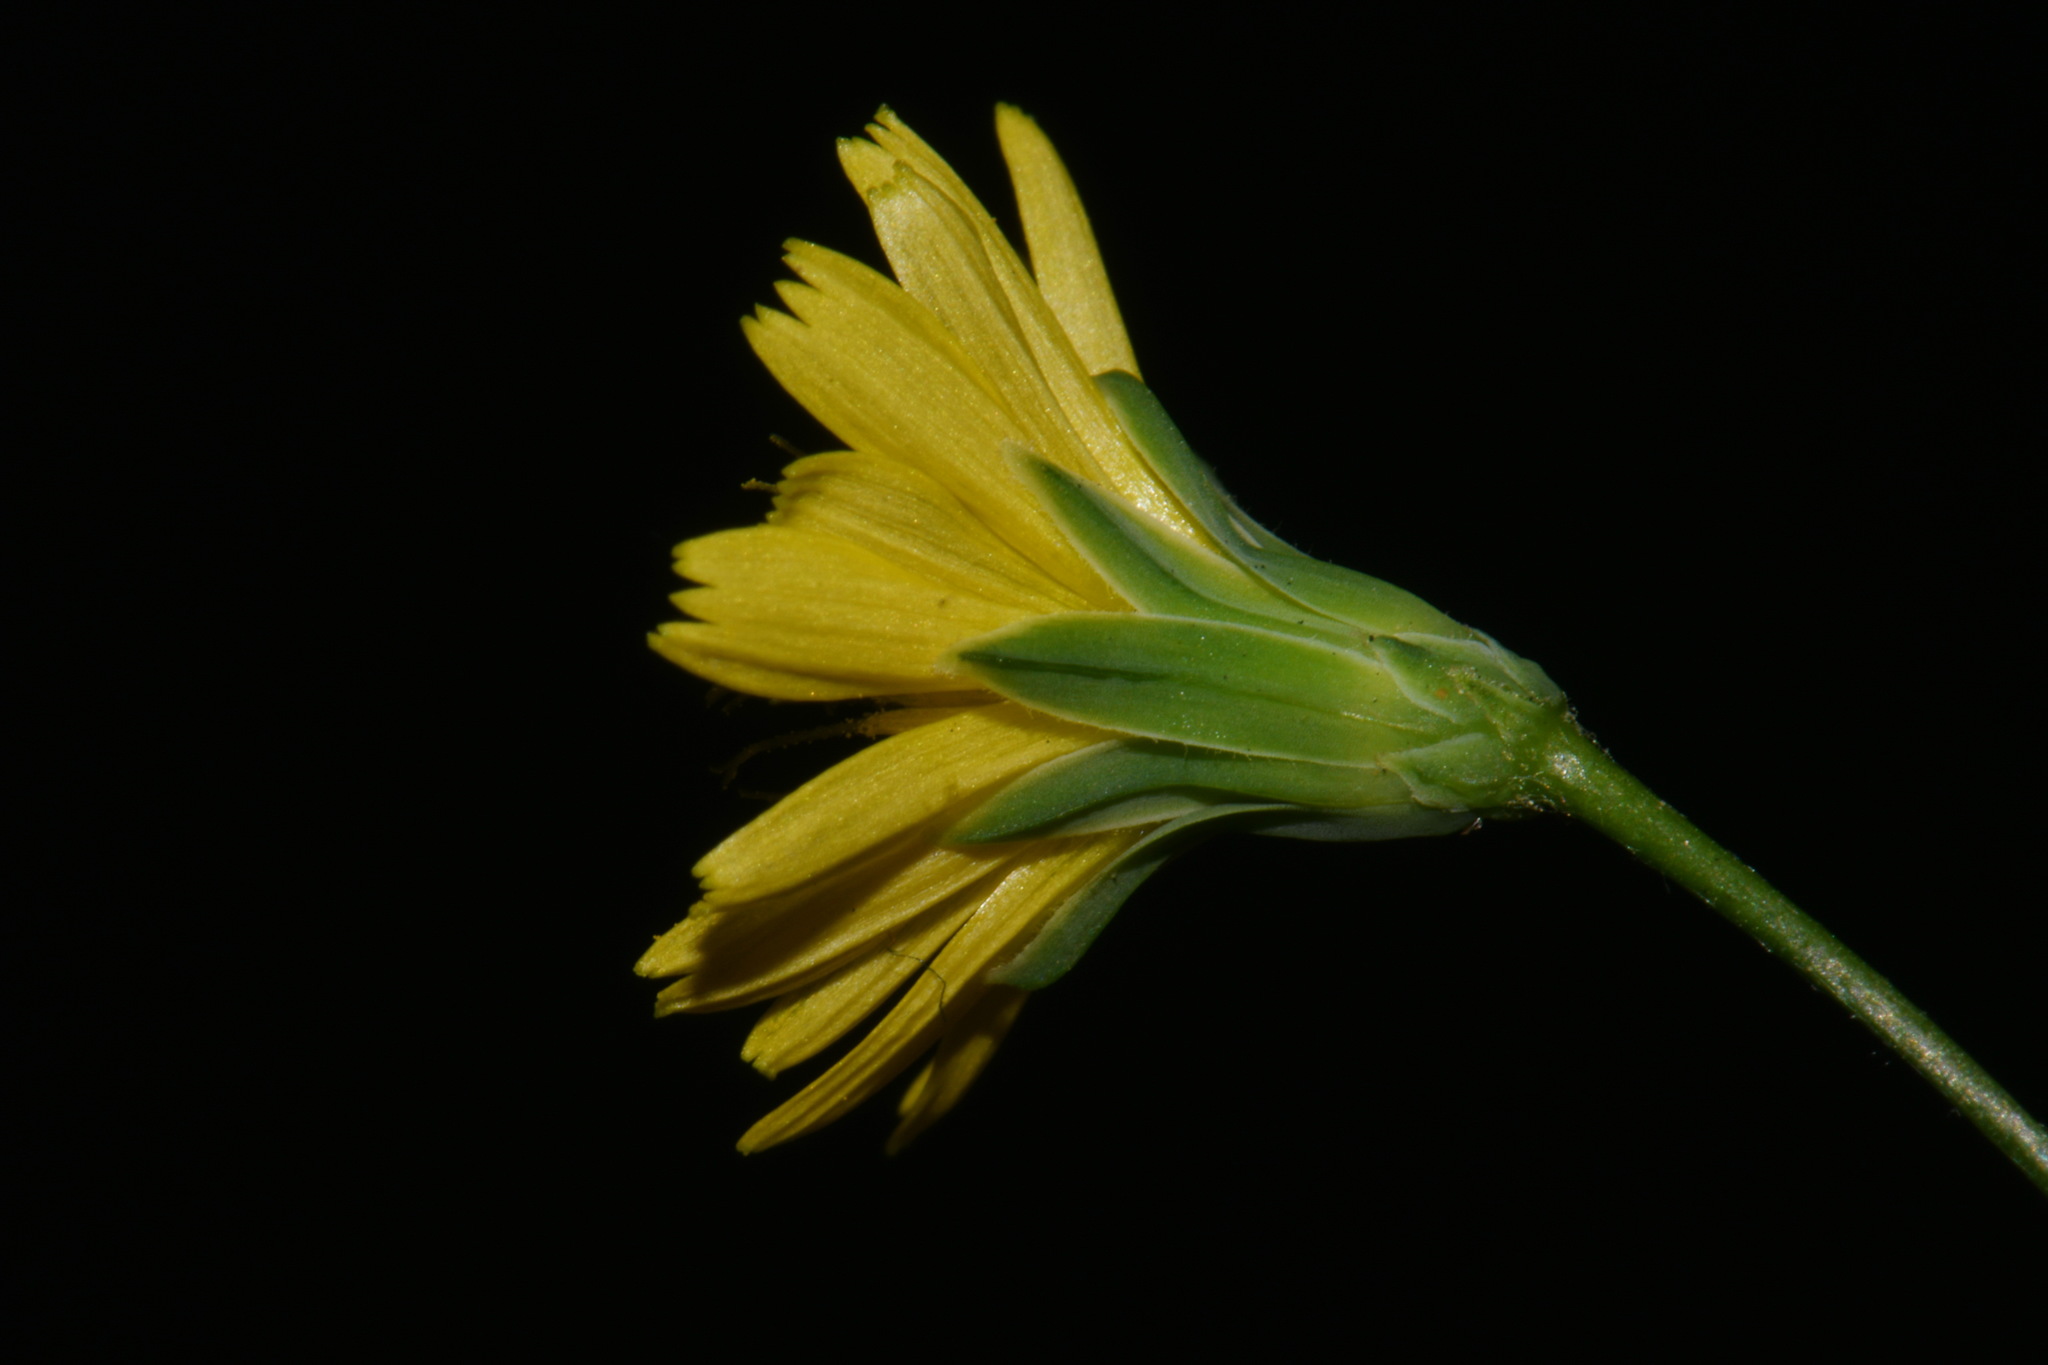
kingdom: Plantae
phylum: Tracheophyta
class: Magnoliopsida
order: Asterales
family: Asteraceae
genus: Lapsana
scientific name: Lapsana communis
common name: Nipplewort
